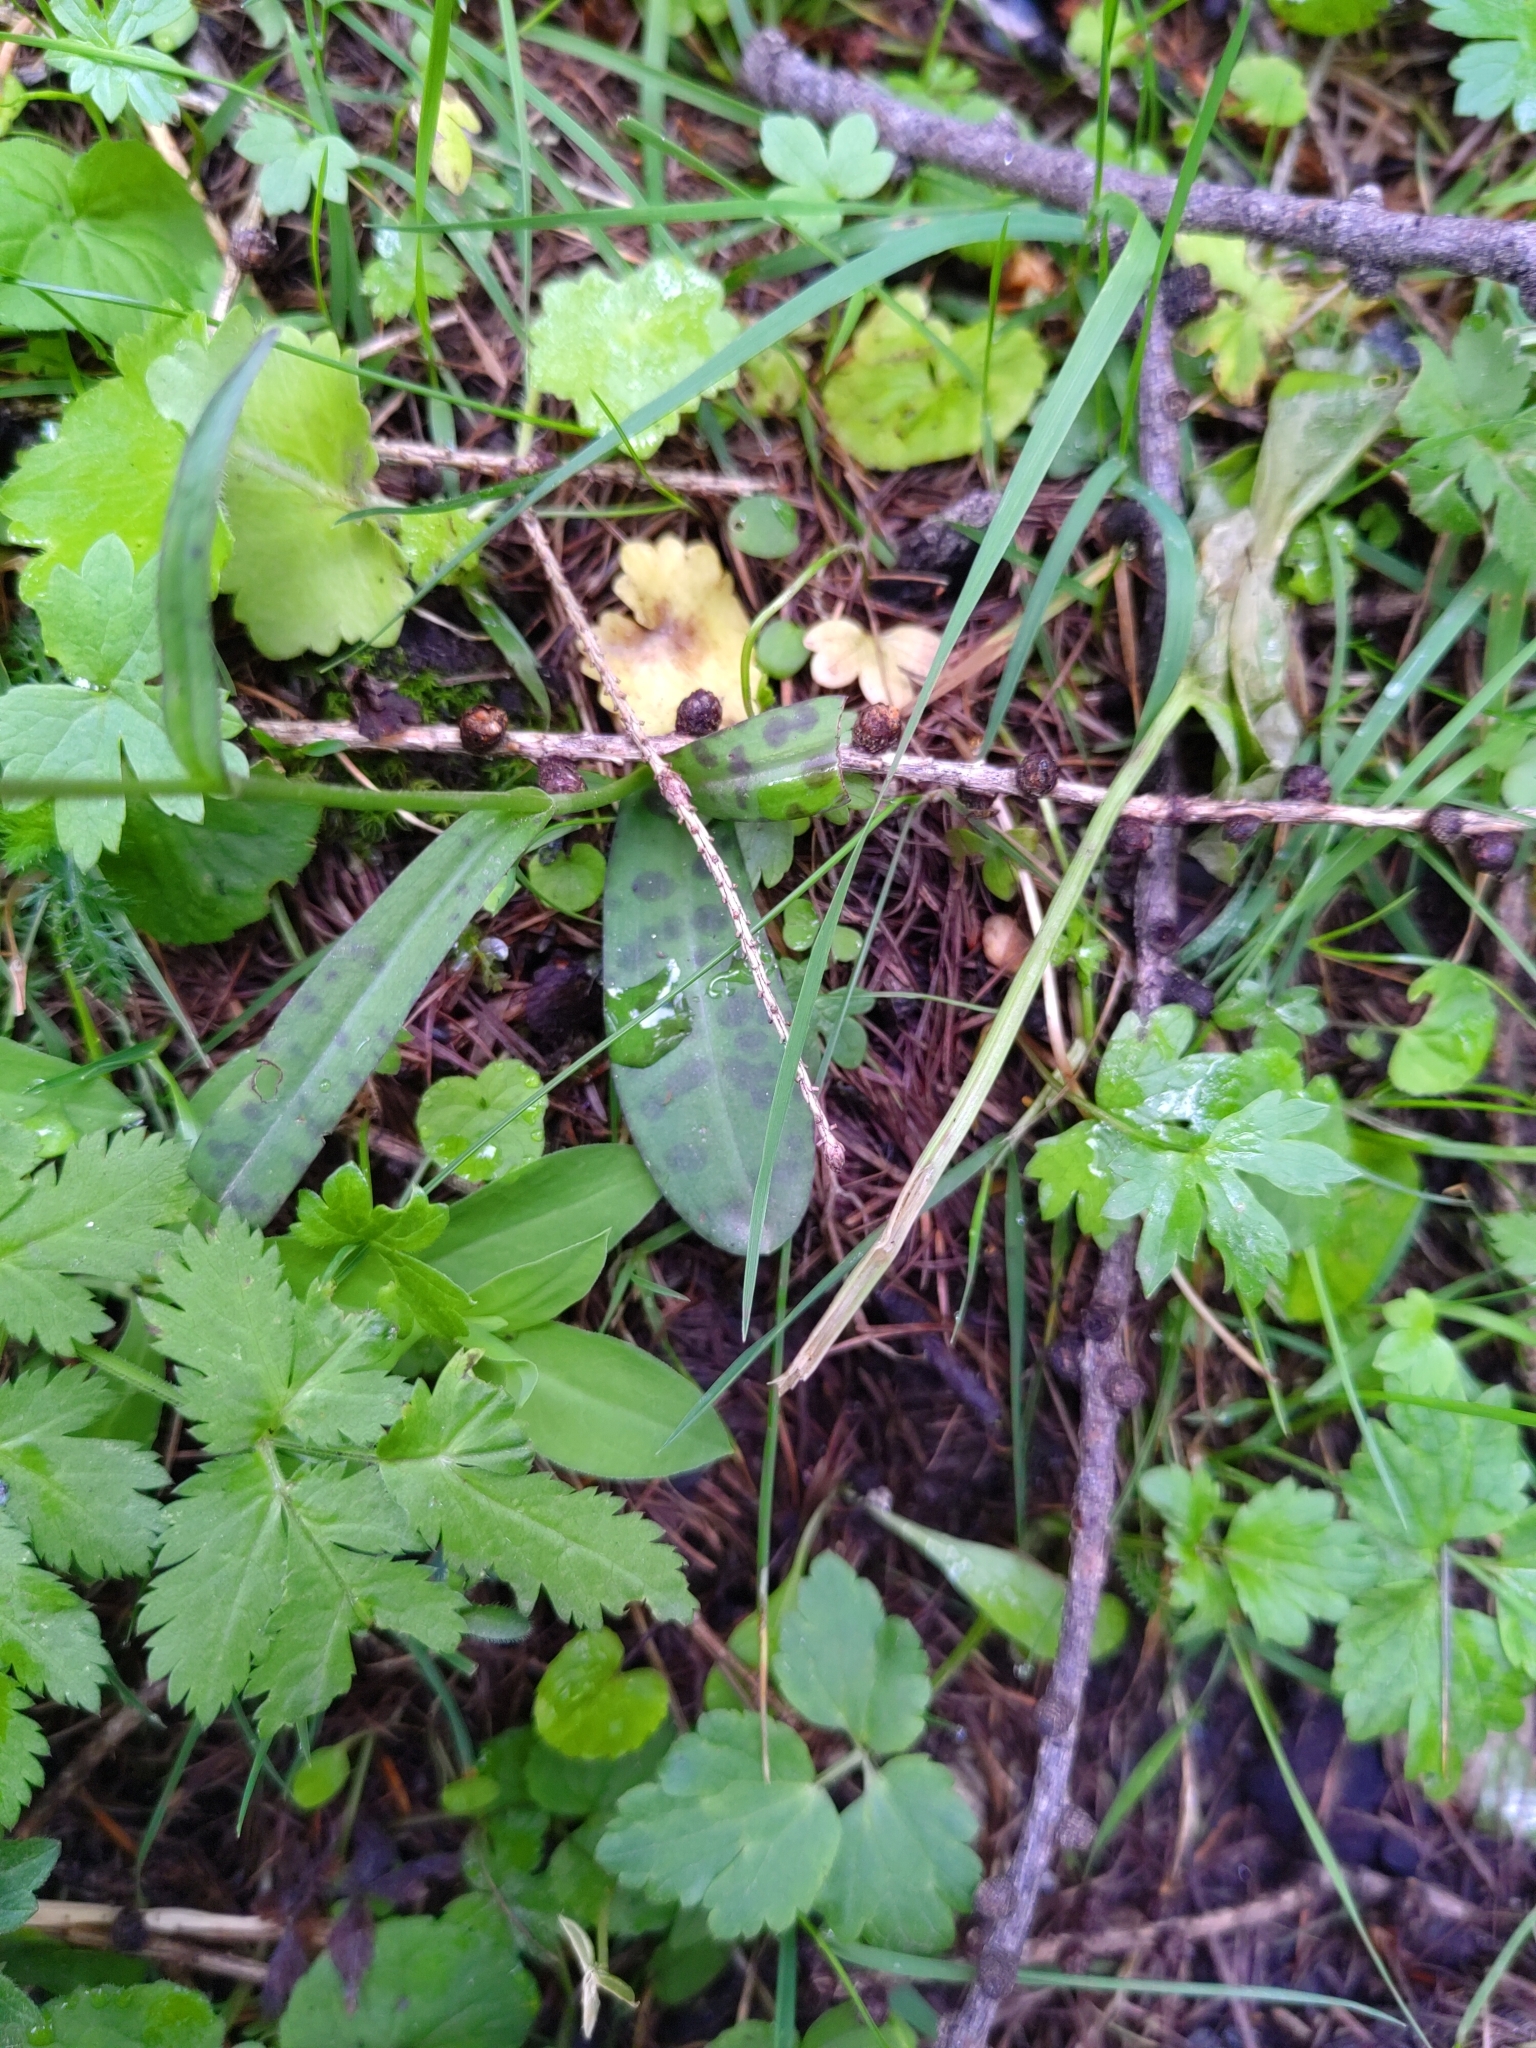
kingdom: Plantae
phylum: Tracheophyta
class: Liliopsida
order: Asparagales
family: Orchidaceae
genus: Dactylorhiza
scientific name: Dactylorhiza maculata
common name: Heath spotted-orchid
